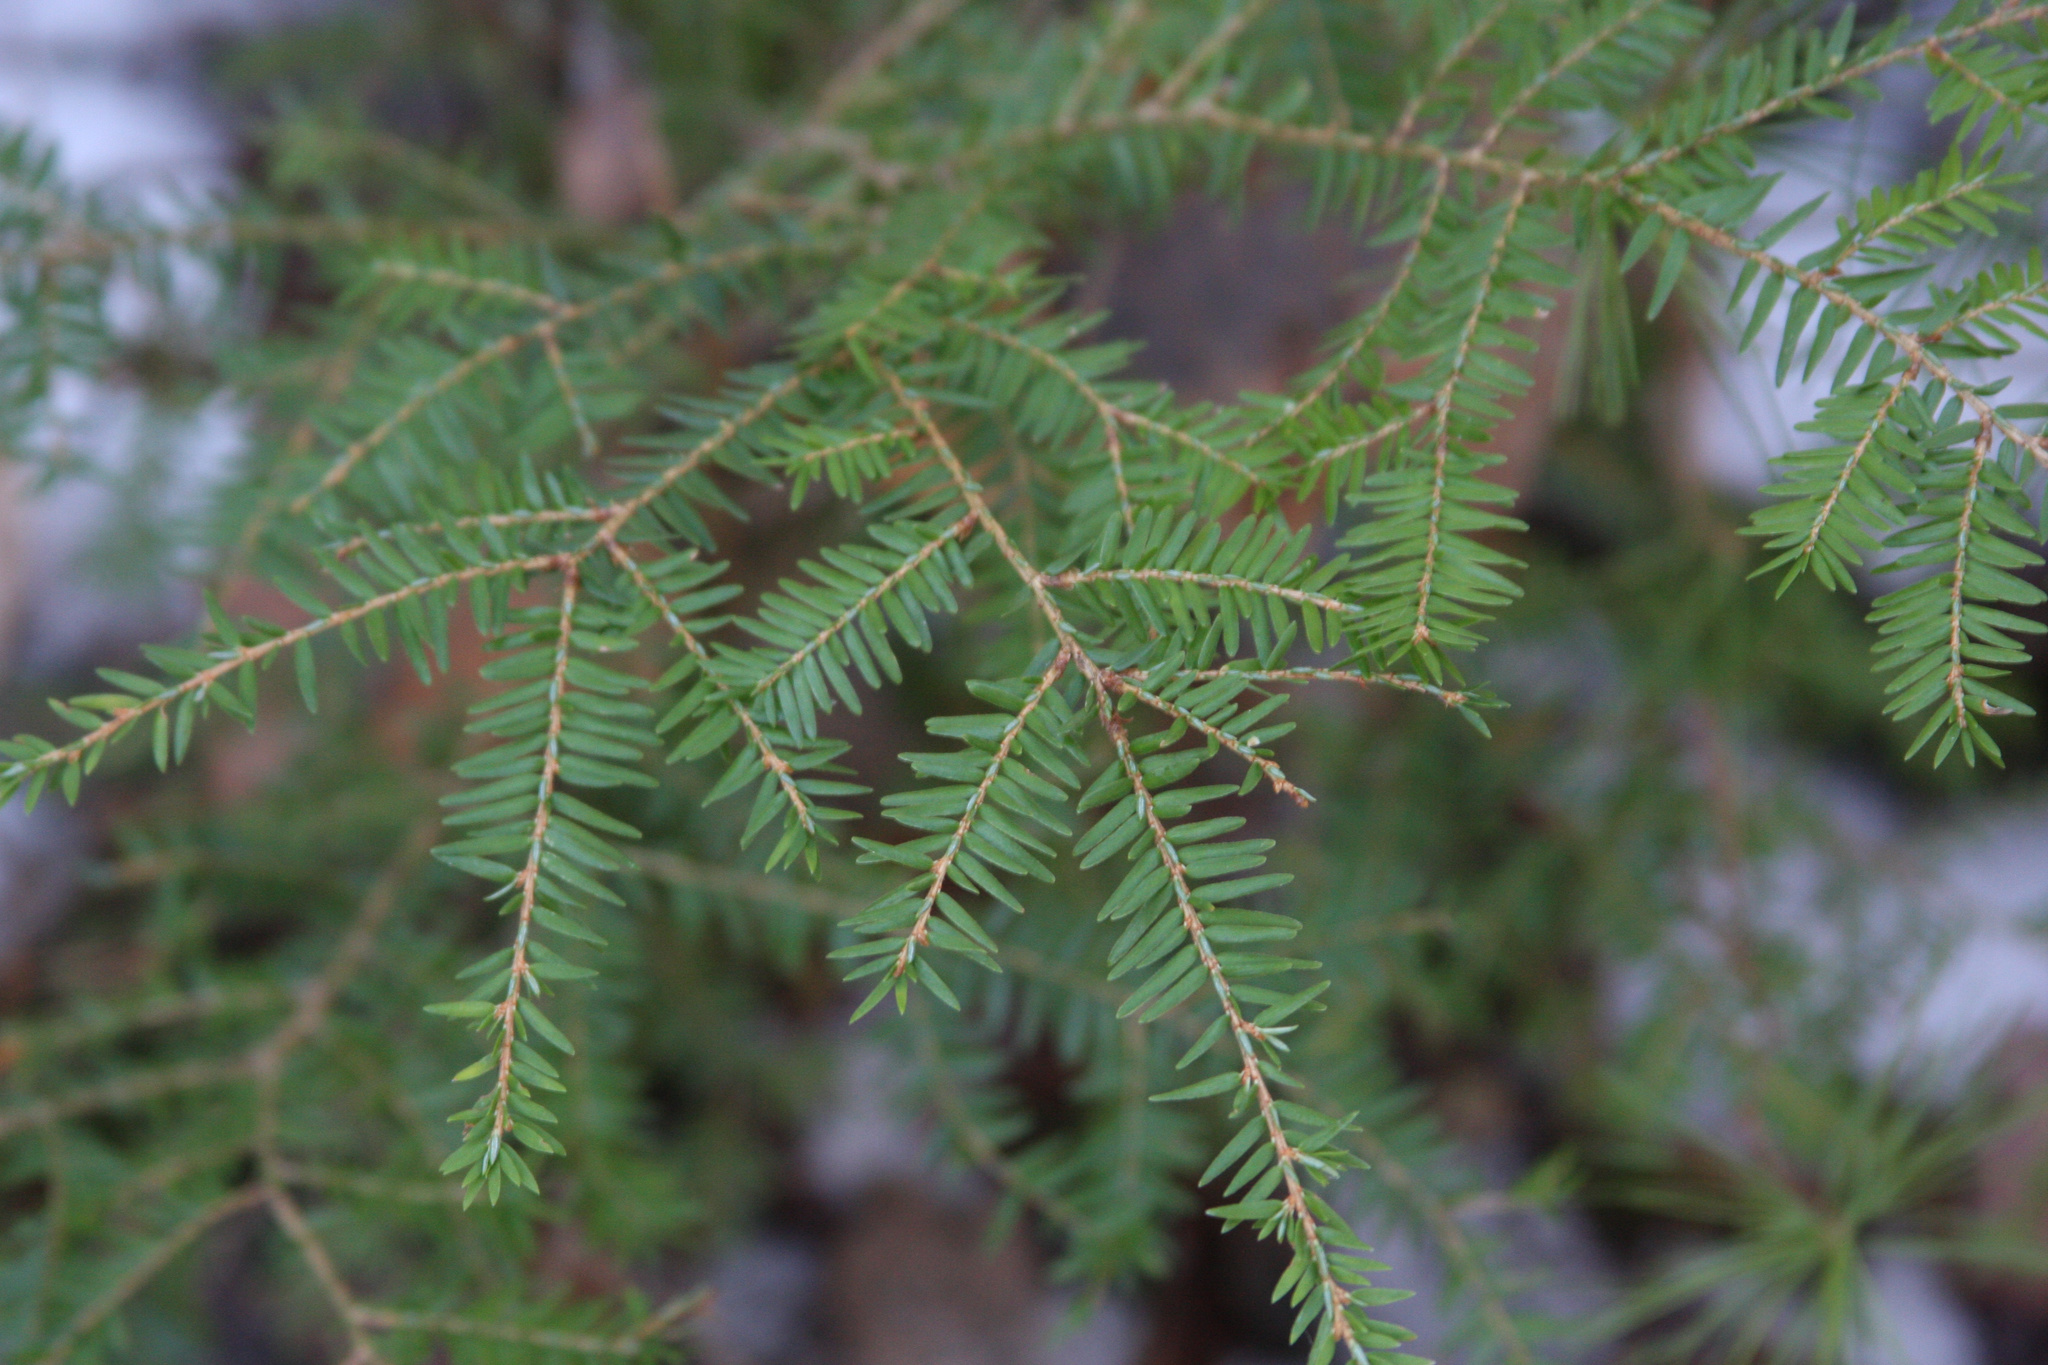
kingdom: Plantae
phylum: Tracheophyta
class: Pinopsida
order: Pinales
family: Pinaceae
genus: Tsuga
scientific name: Tsuga canadensis
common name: Eastern hemlock
